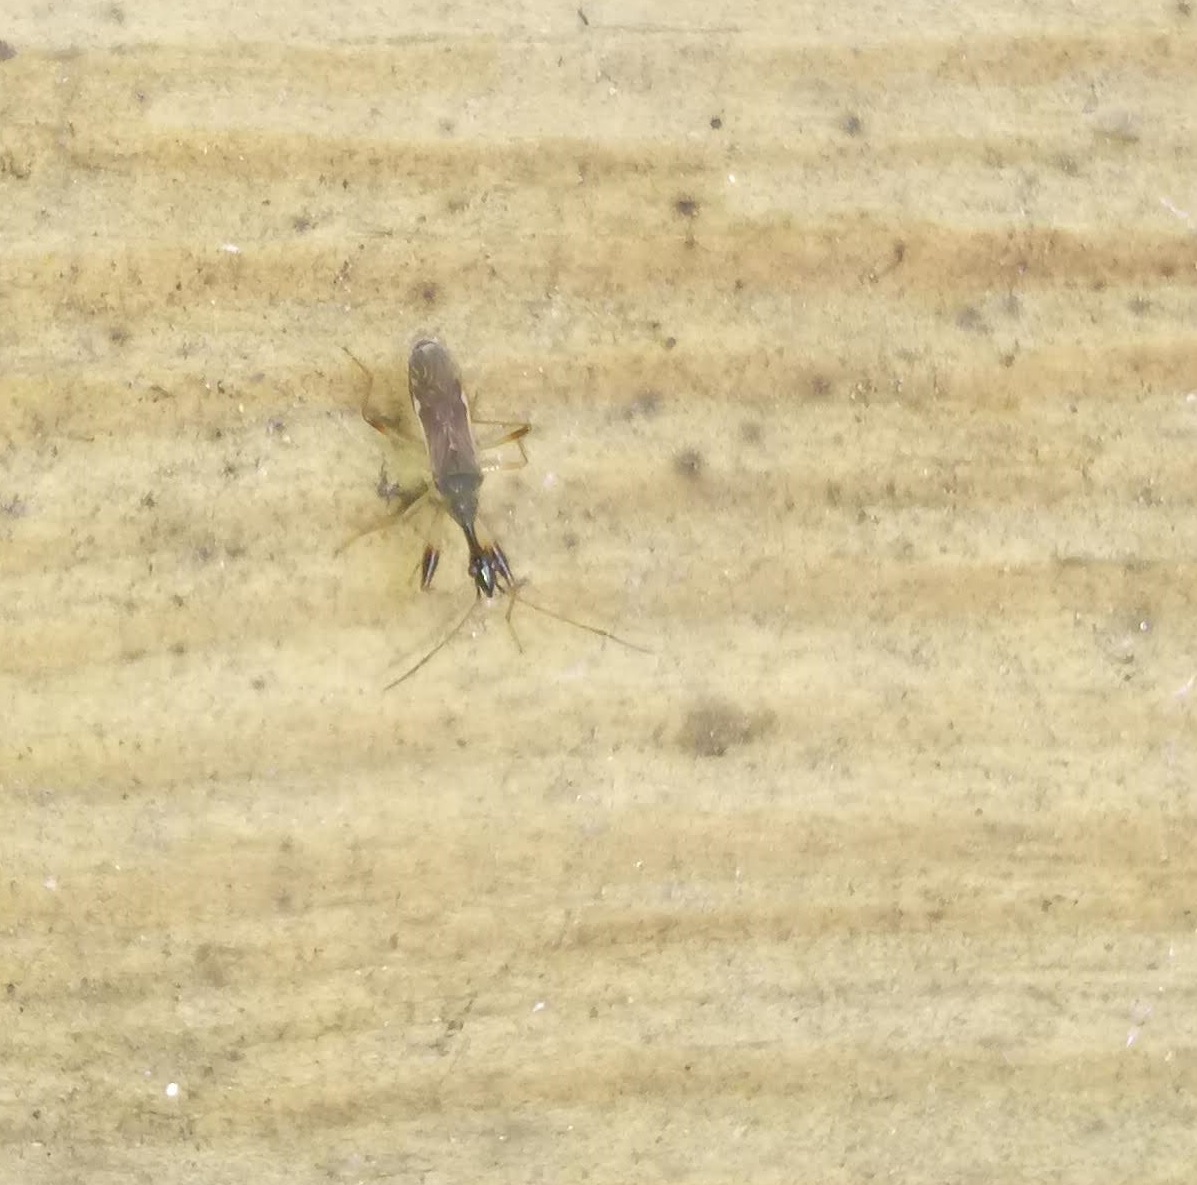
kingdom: Animalia
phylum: Arthropoda
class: Insecta
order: Hemiptera
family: Rhyparochromidae
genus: Myodocha
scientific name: Myodocha serripes
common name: Long-necked seed bug
